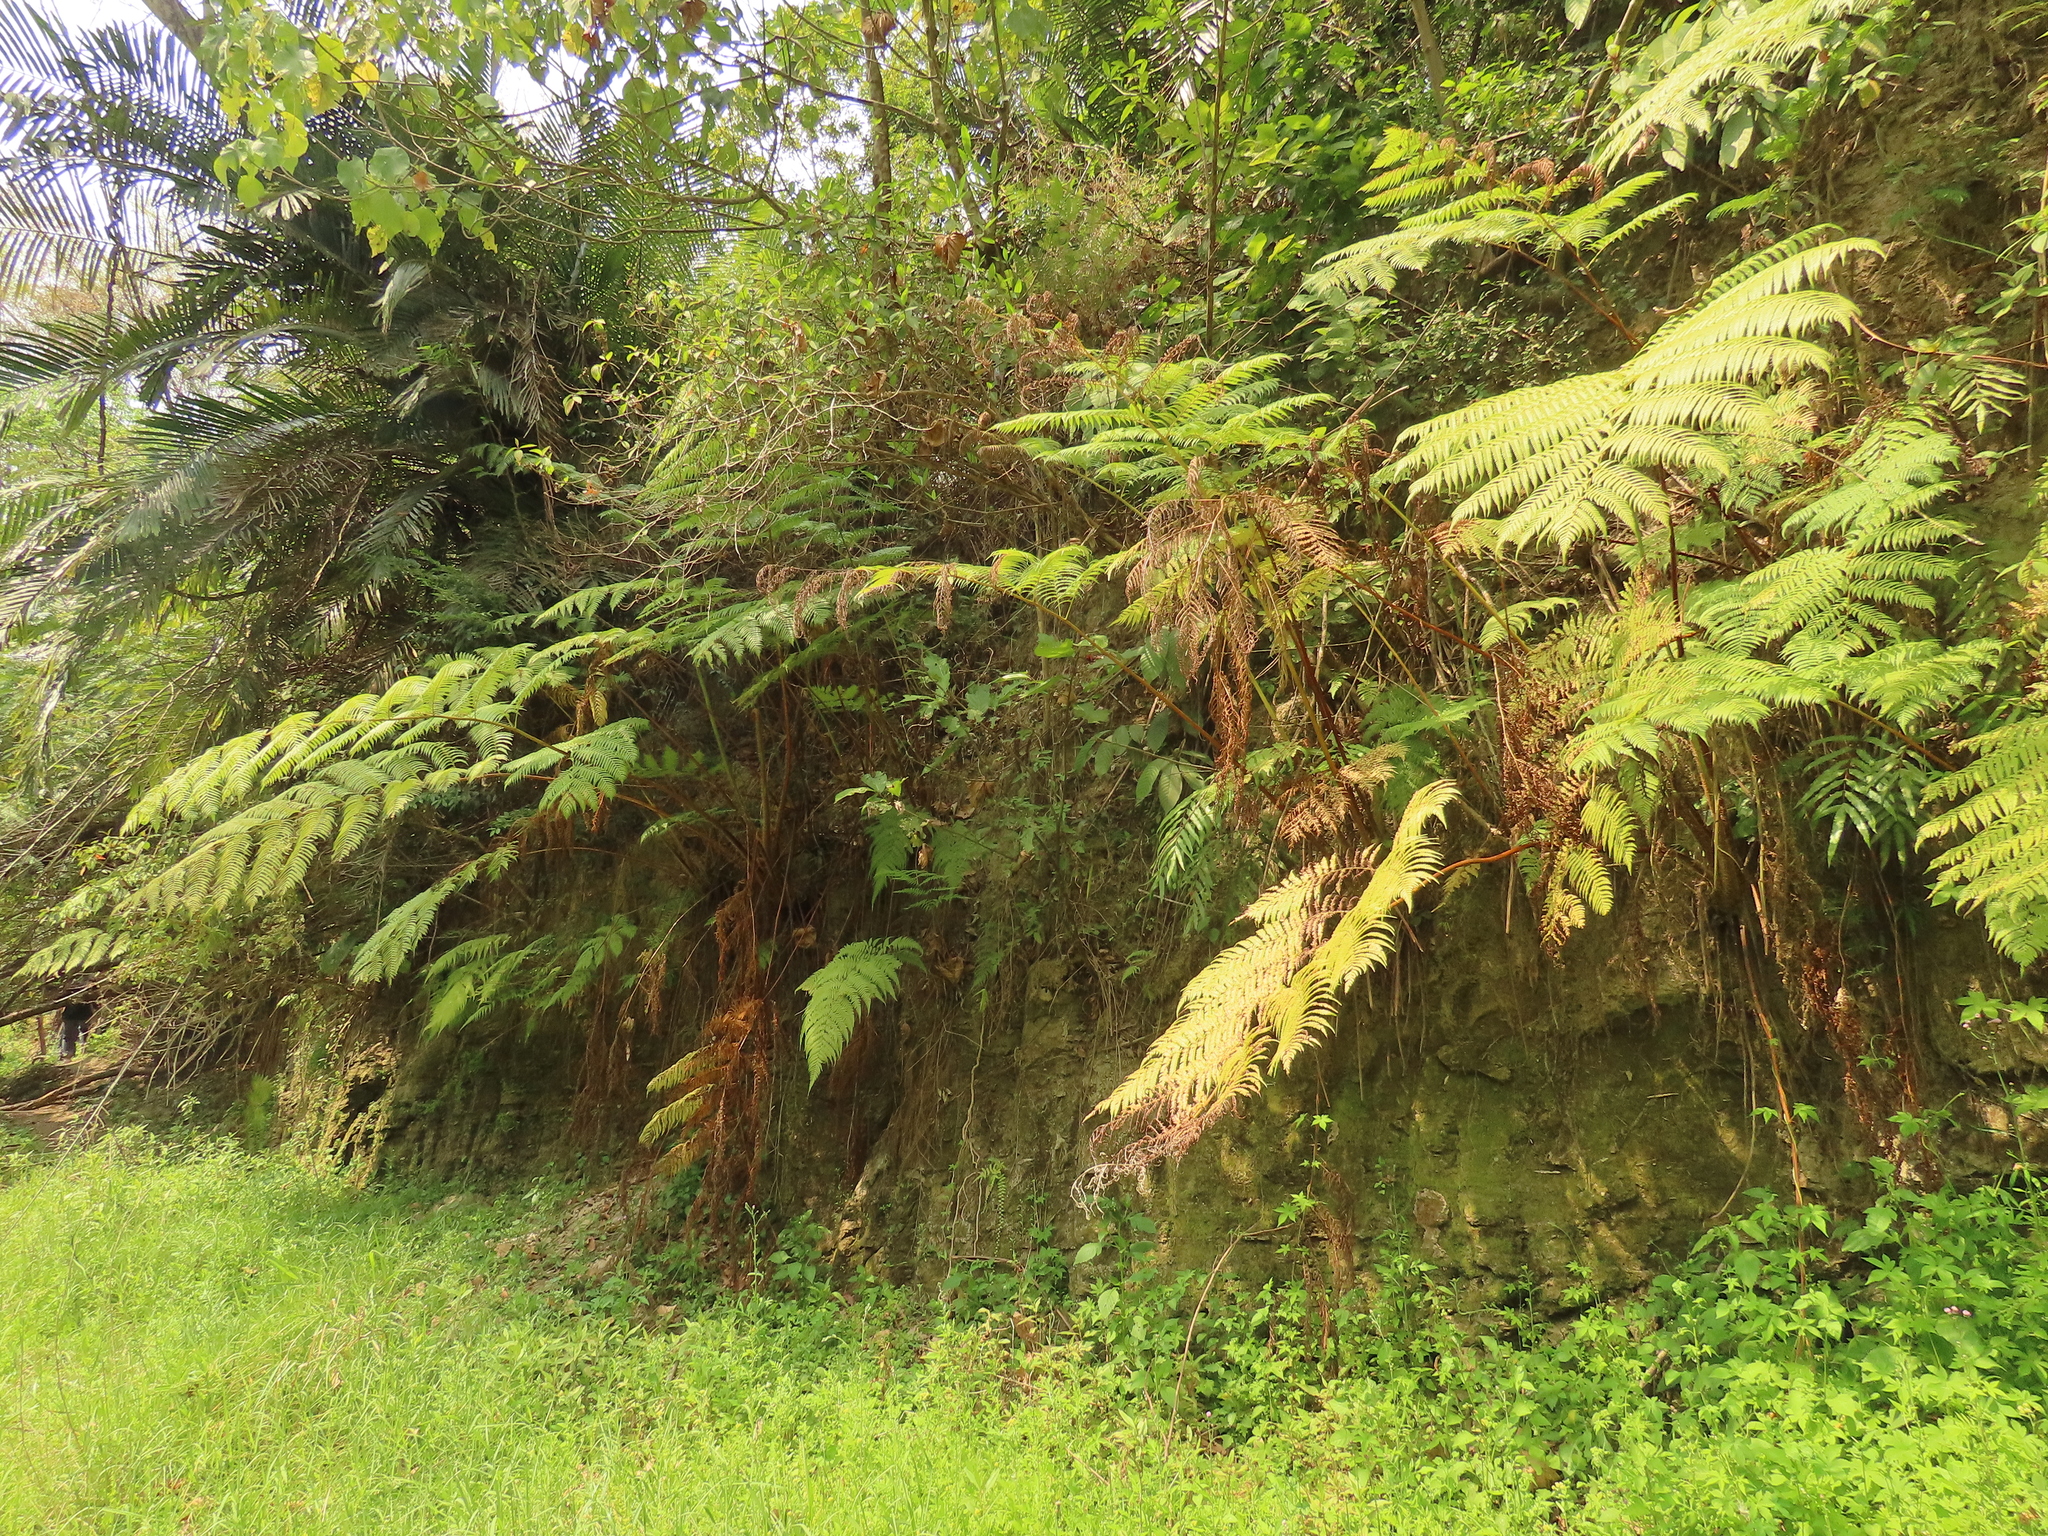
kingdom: Plantae
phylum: Tracheophyta
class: Polypodiopsida
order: Cyatheales
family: Cyatheaceae
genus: Alsophila
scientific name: Alsophila lepifera
